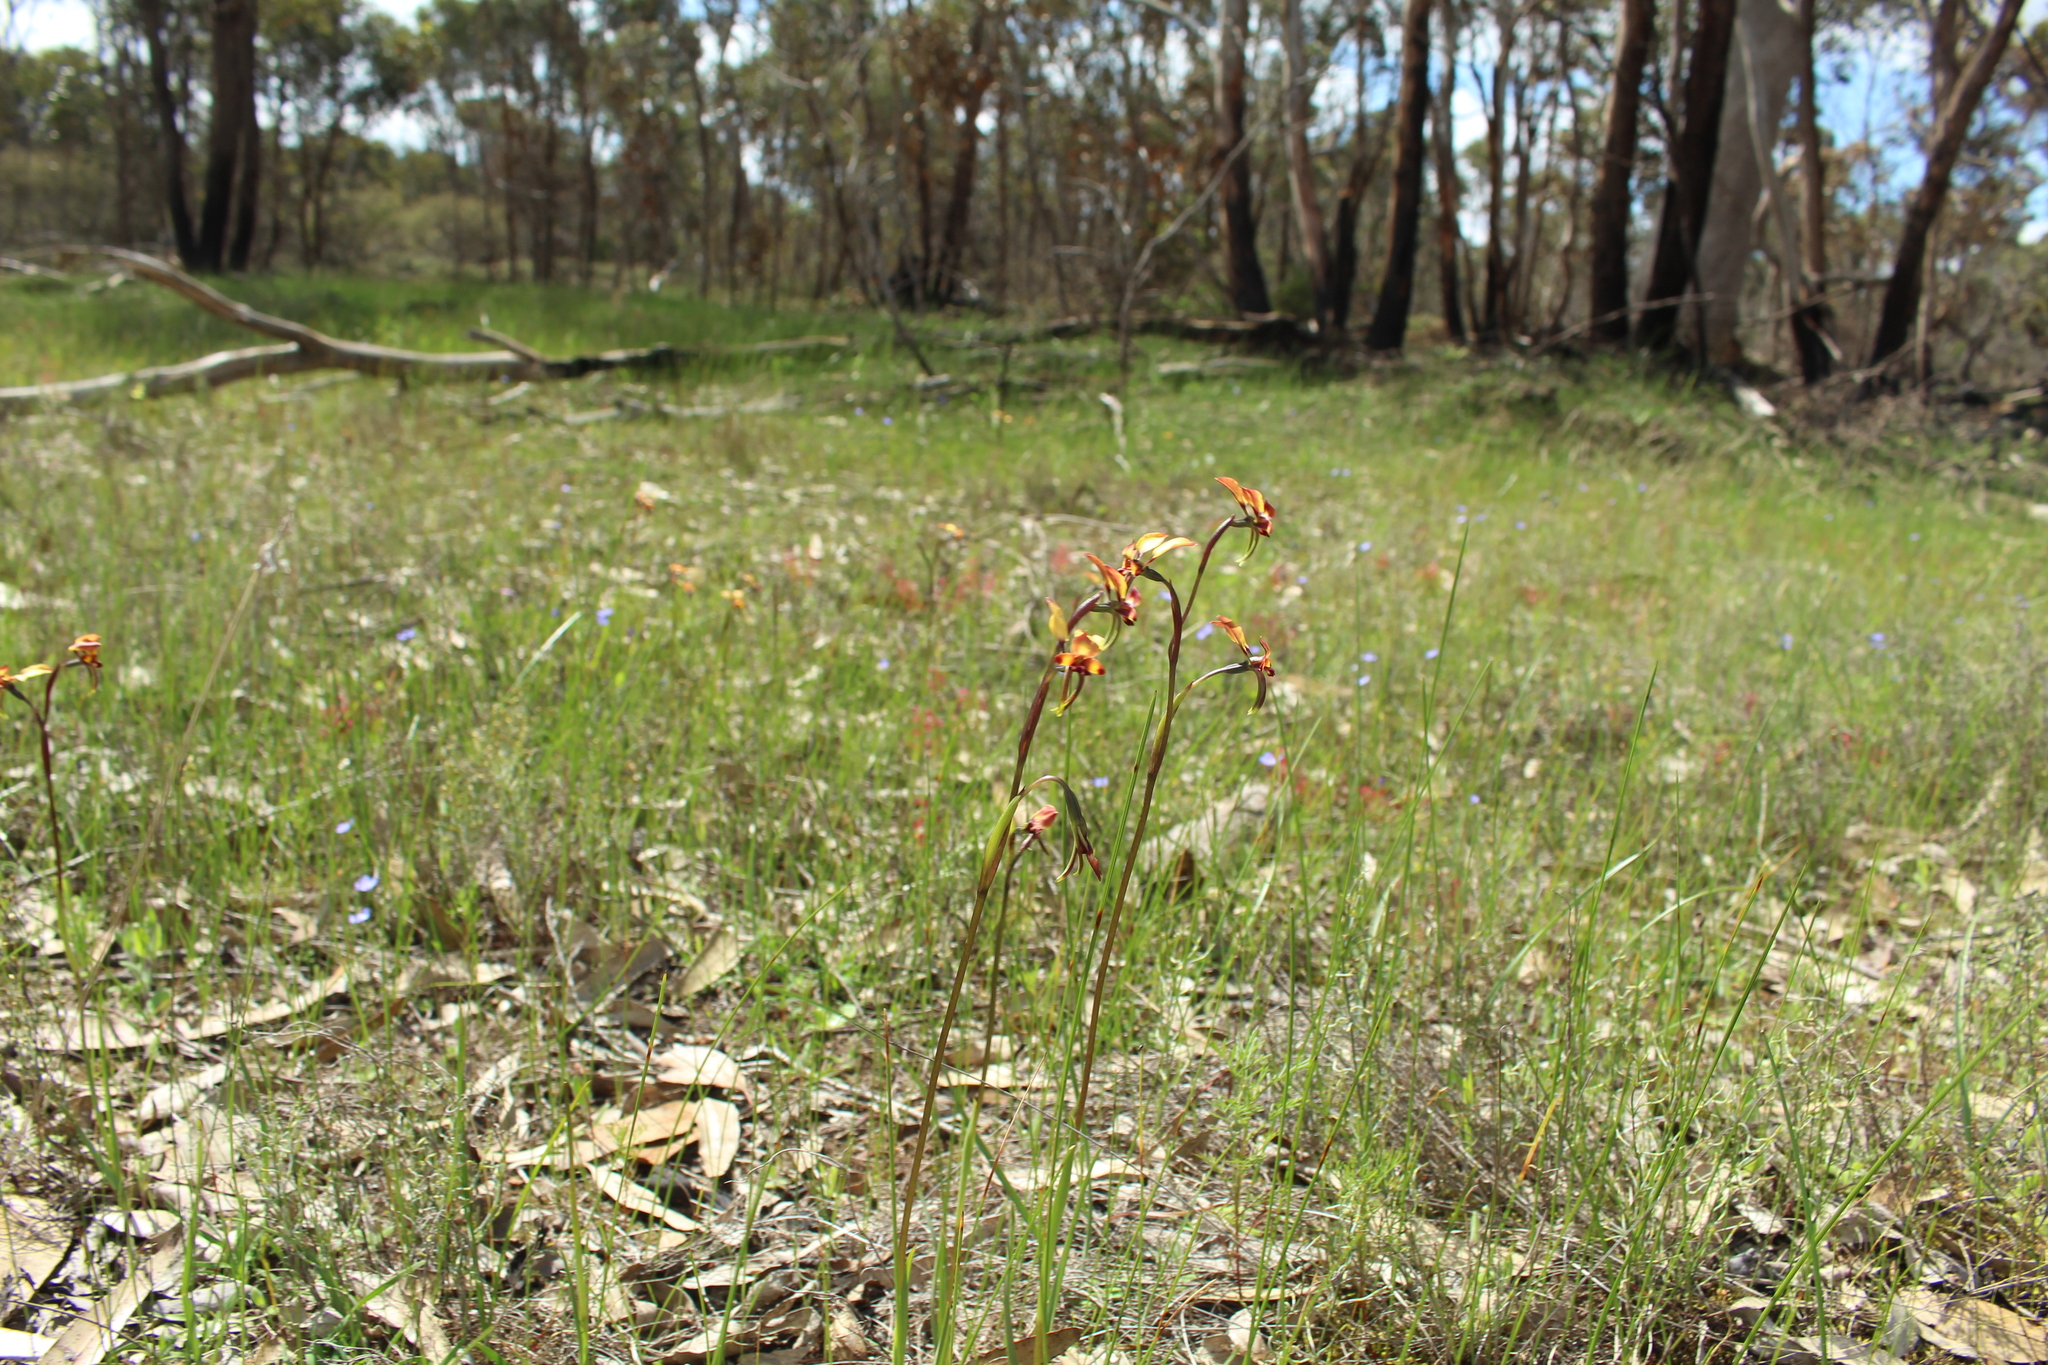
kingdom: Plantae
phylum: Tracheophyta
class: Liliopsida
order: Asparagales
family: Orchidaceae
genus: Diuris
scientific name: Diuris porrifolia
